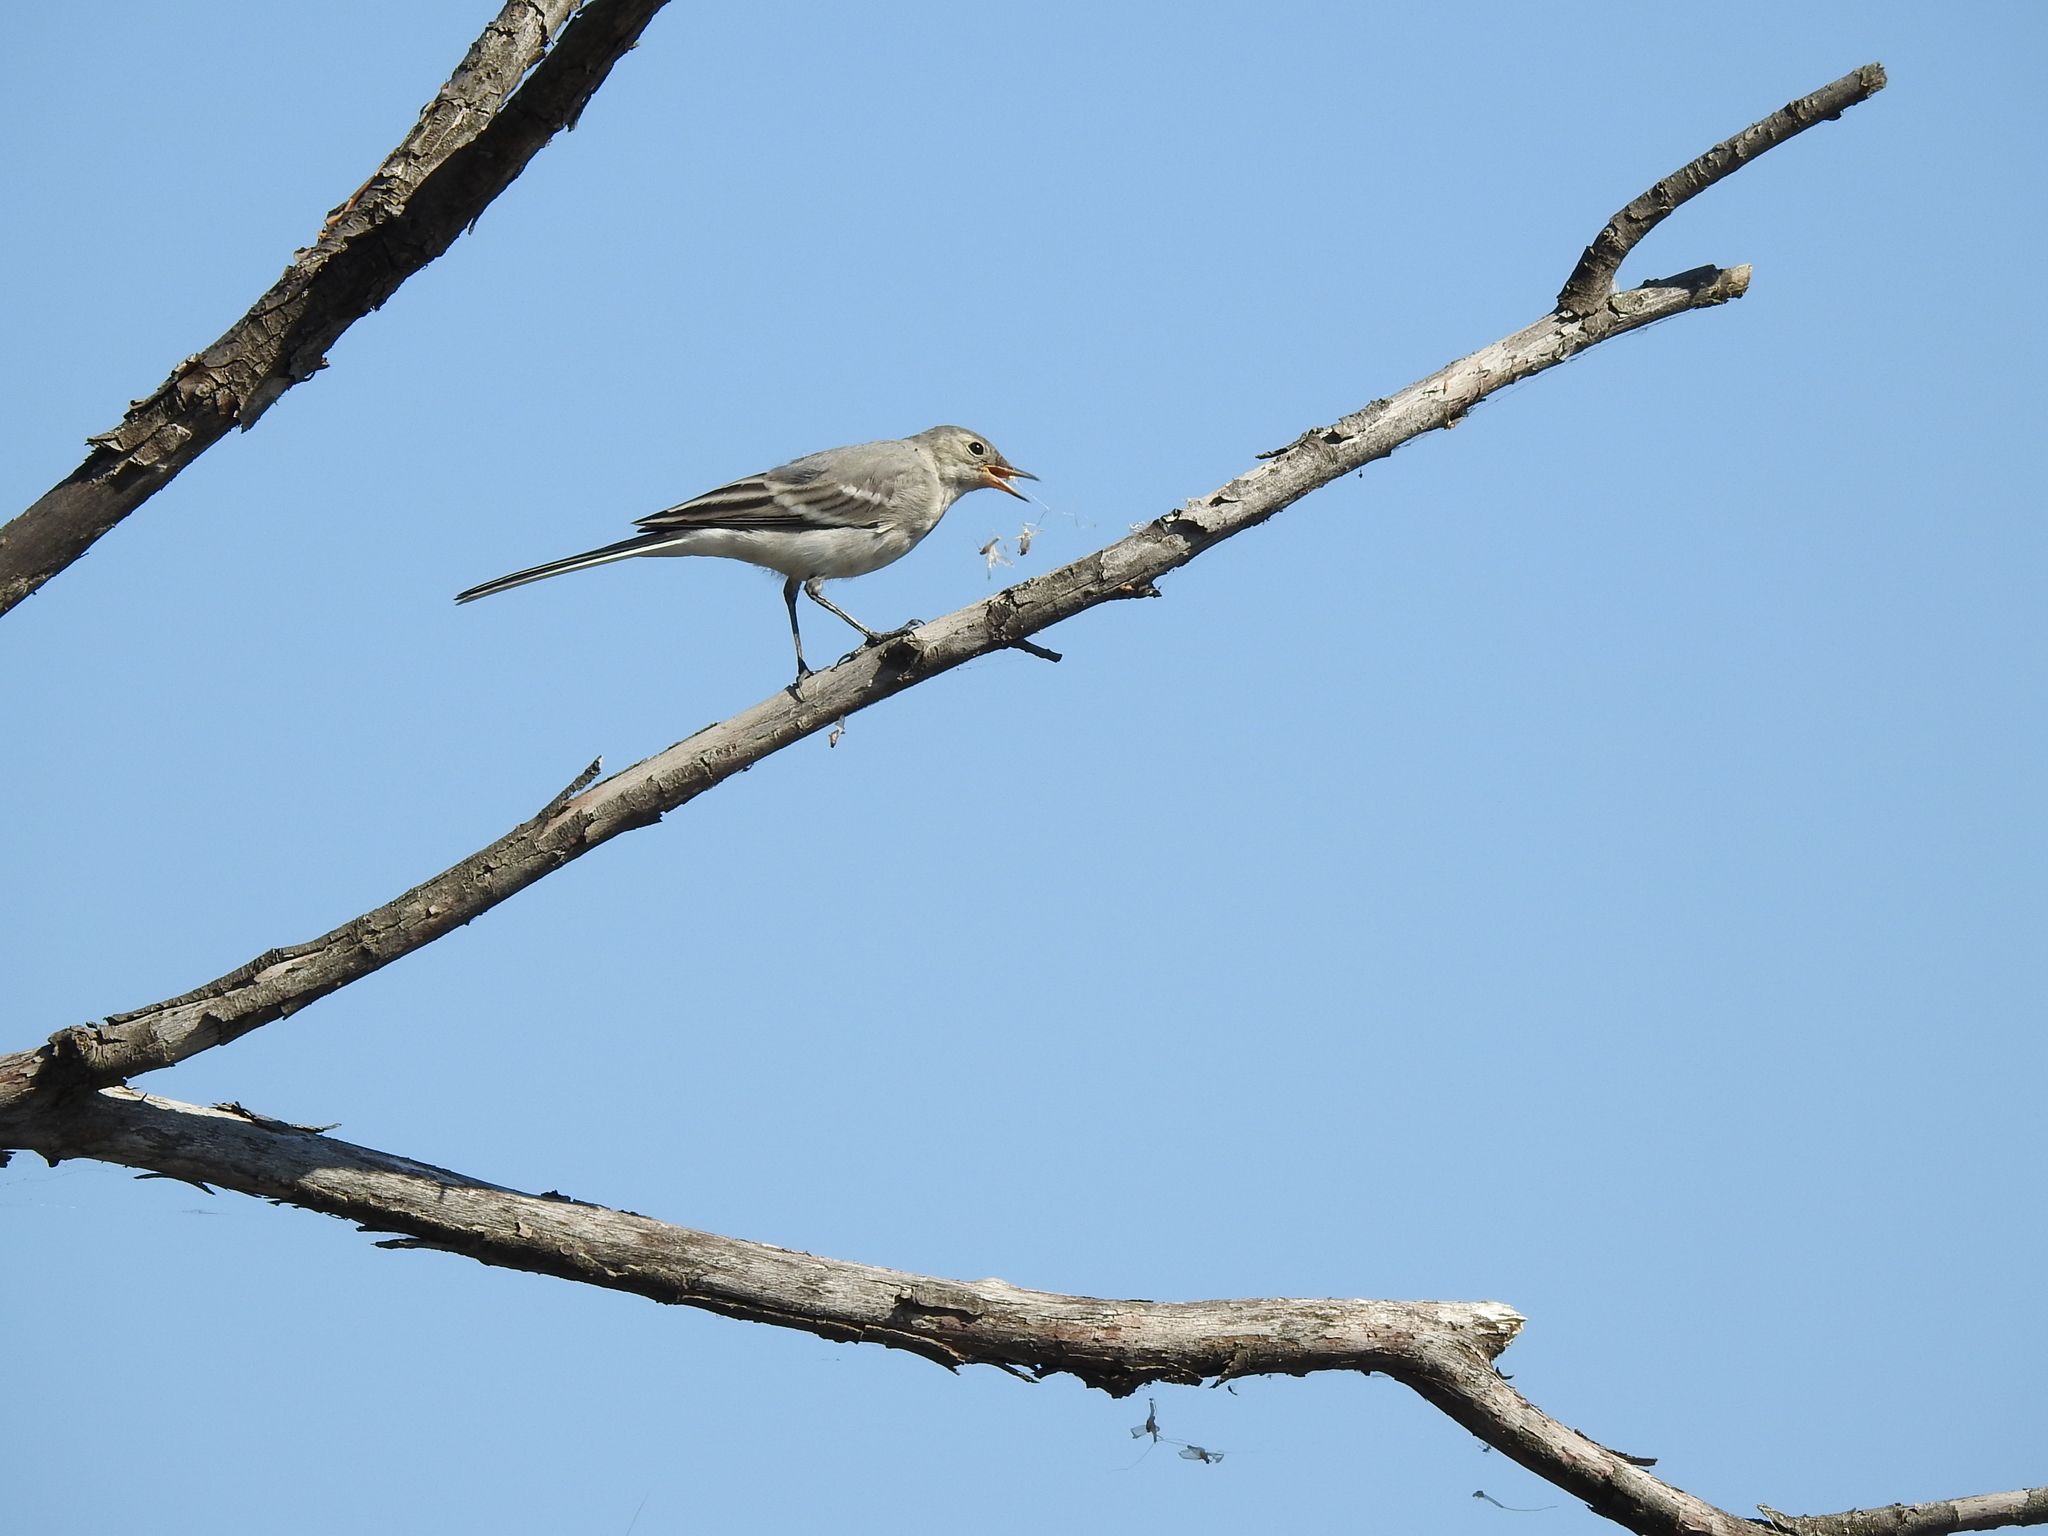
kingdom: Animalia
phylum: Chordata
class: Aves
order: Passeriformes
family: Motacillidae
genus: Motacilla
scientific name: Motacilla alba
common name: White wagtail
